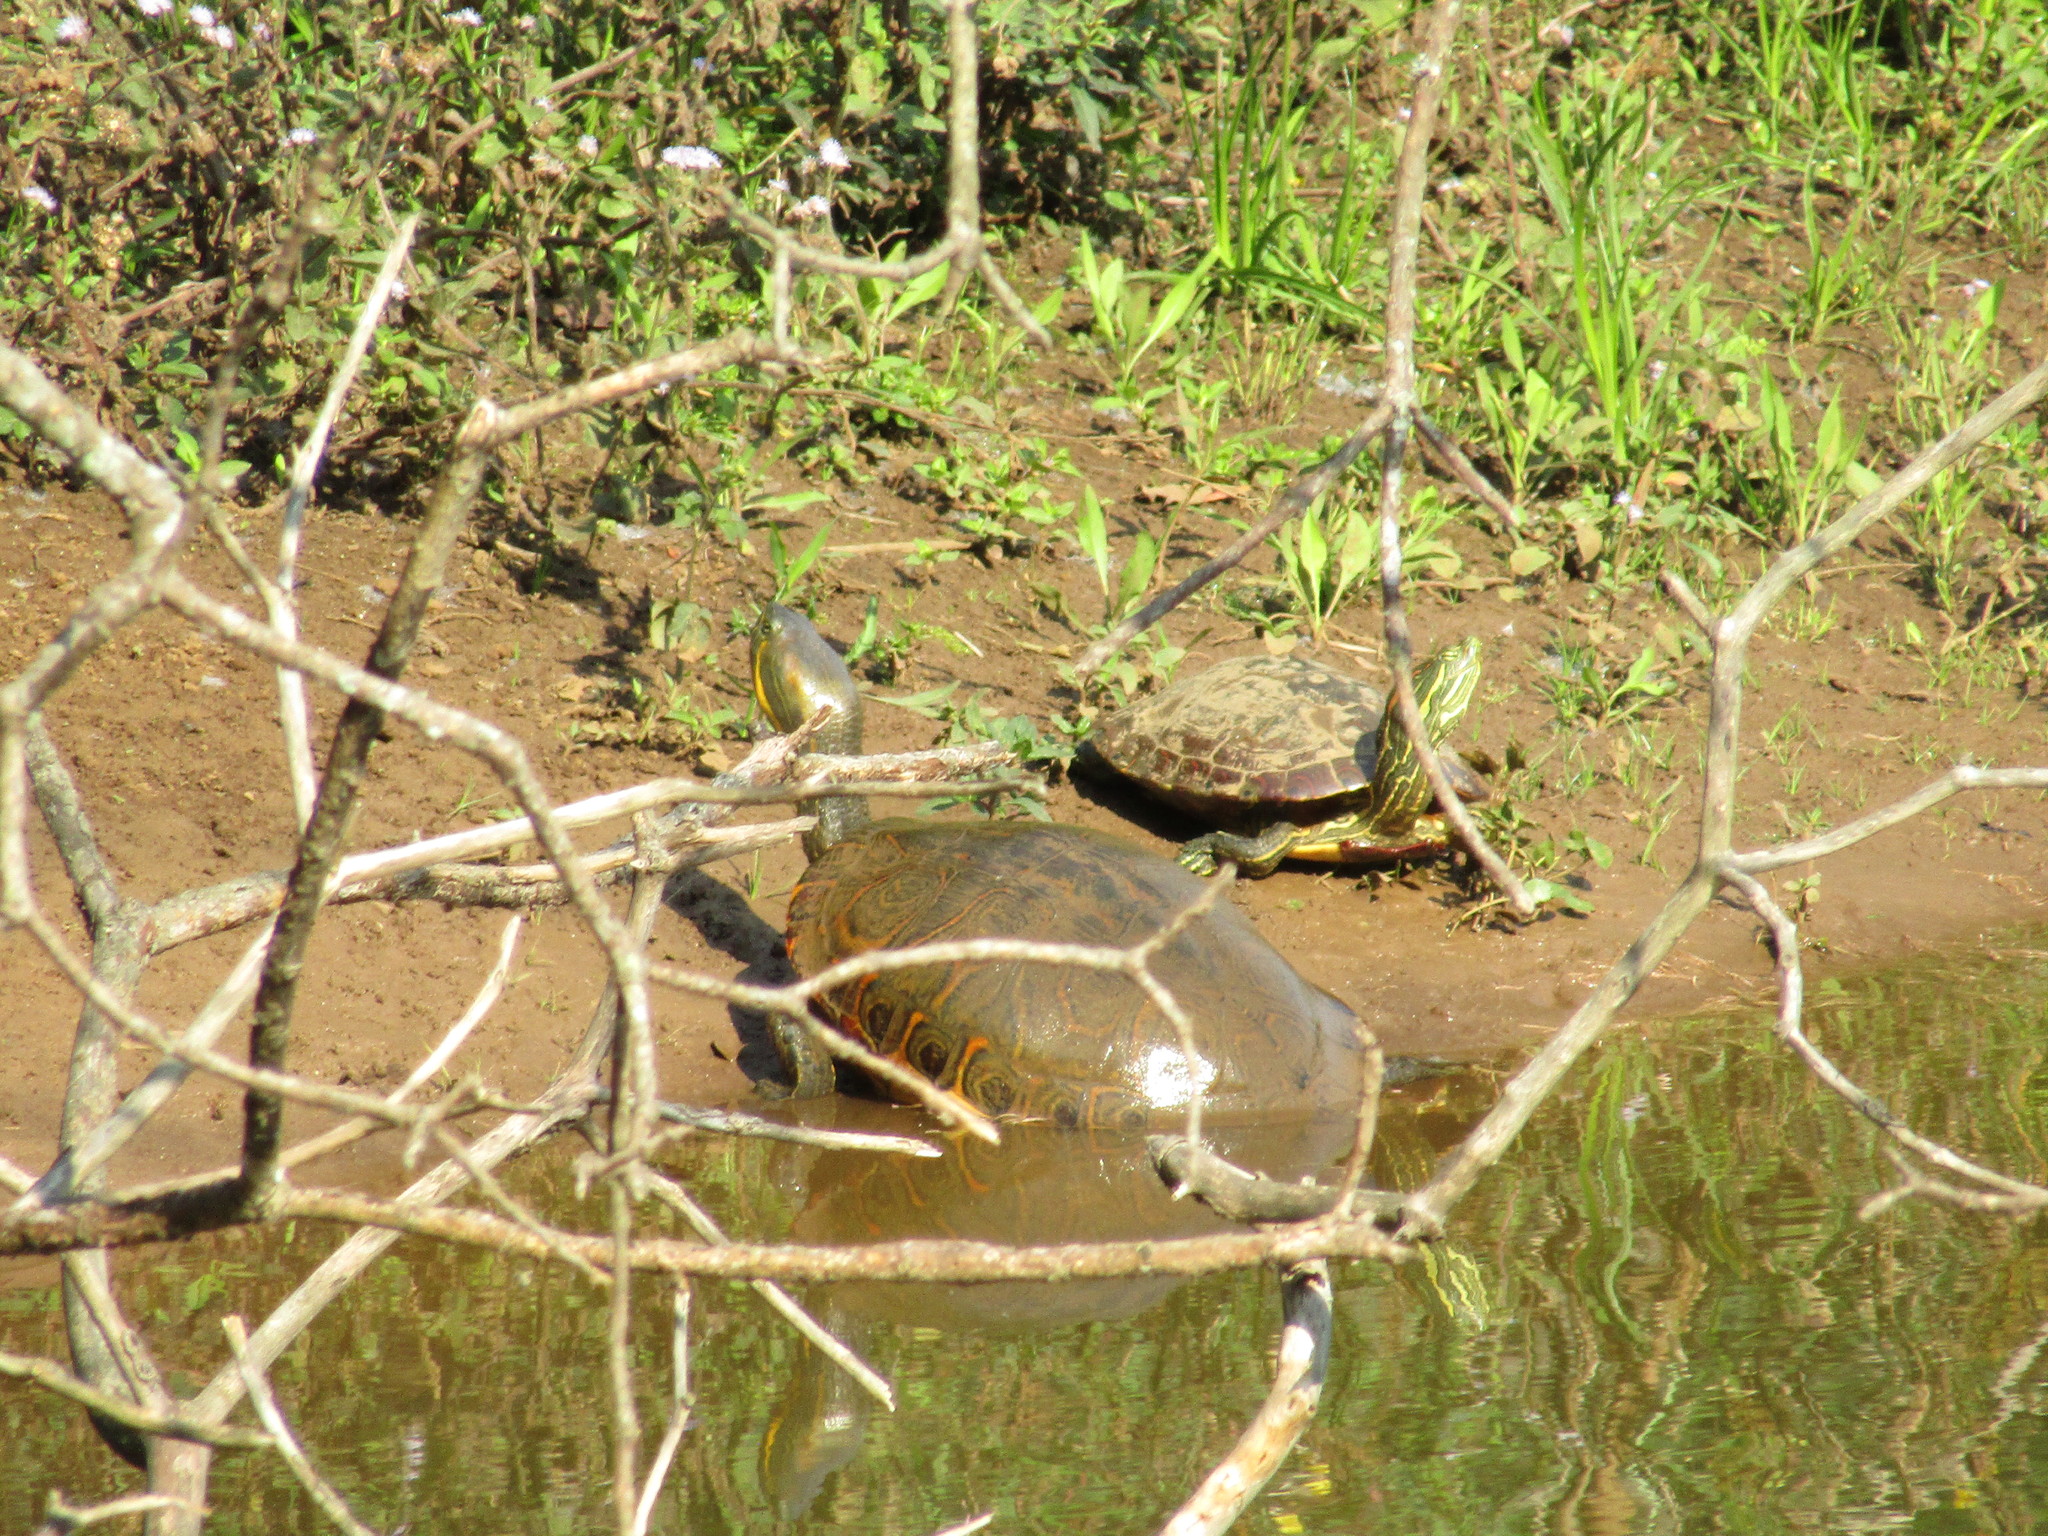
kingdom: Animalia
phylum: Chordata
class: Testudines
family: Emydidae
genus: Trachemys
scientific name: Trachemys venusta
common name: Mesoamerican slider
